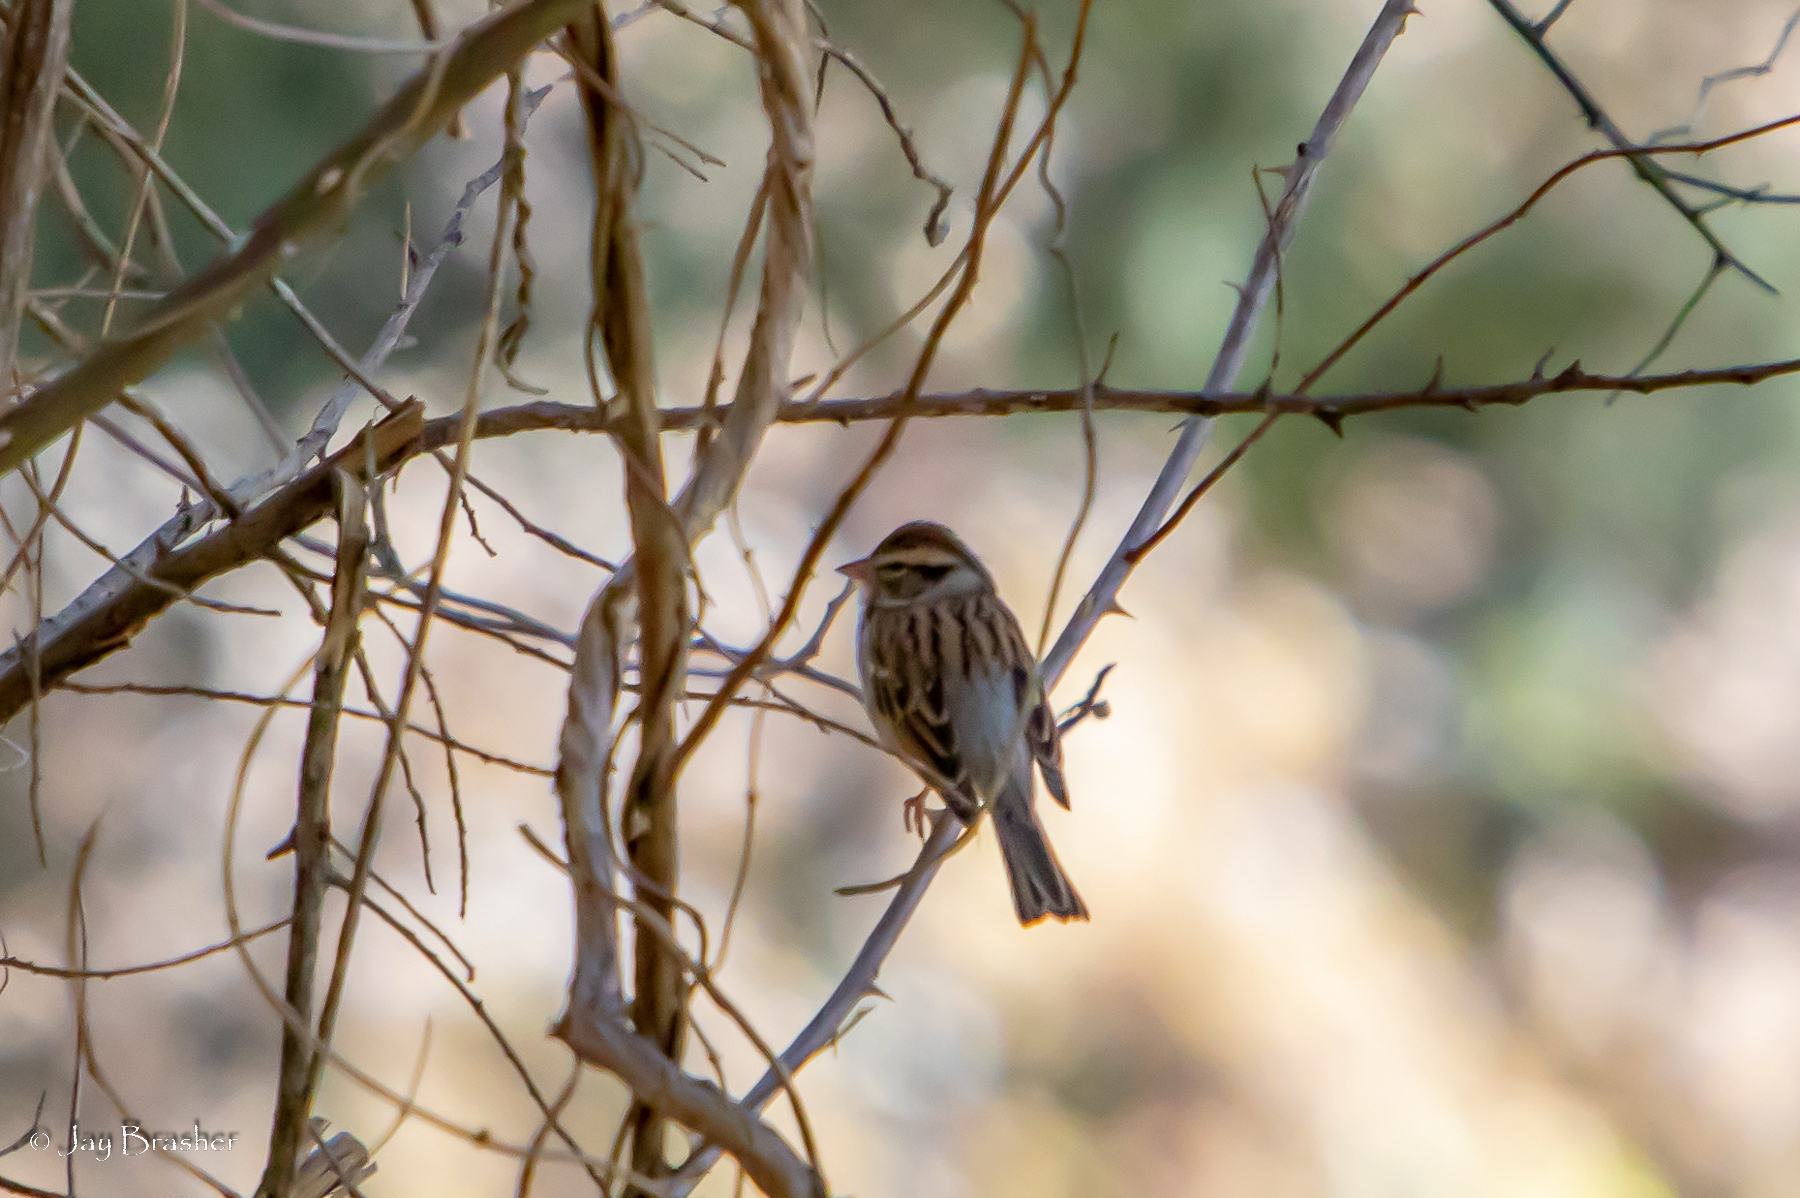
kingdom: Animalia
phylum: Chordata
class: Aves
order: Passeriformes
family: Passerellidae
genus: Spizella
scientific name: Spizella passerina
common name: Chipping sparrow
